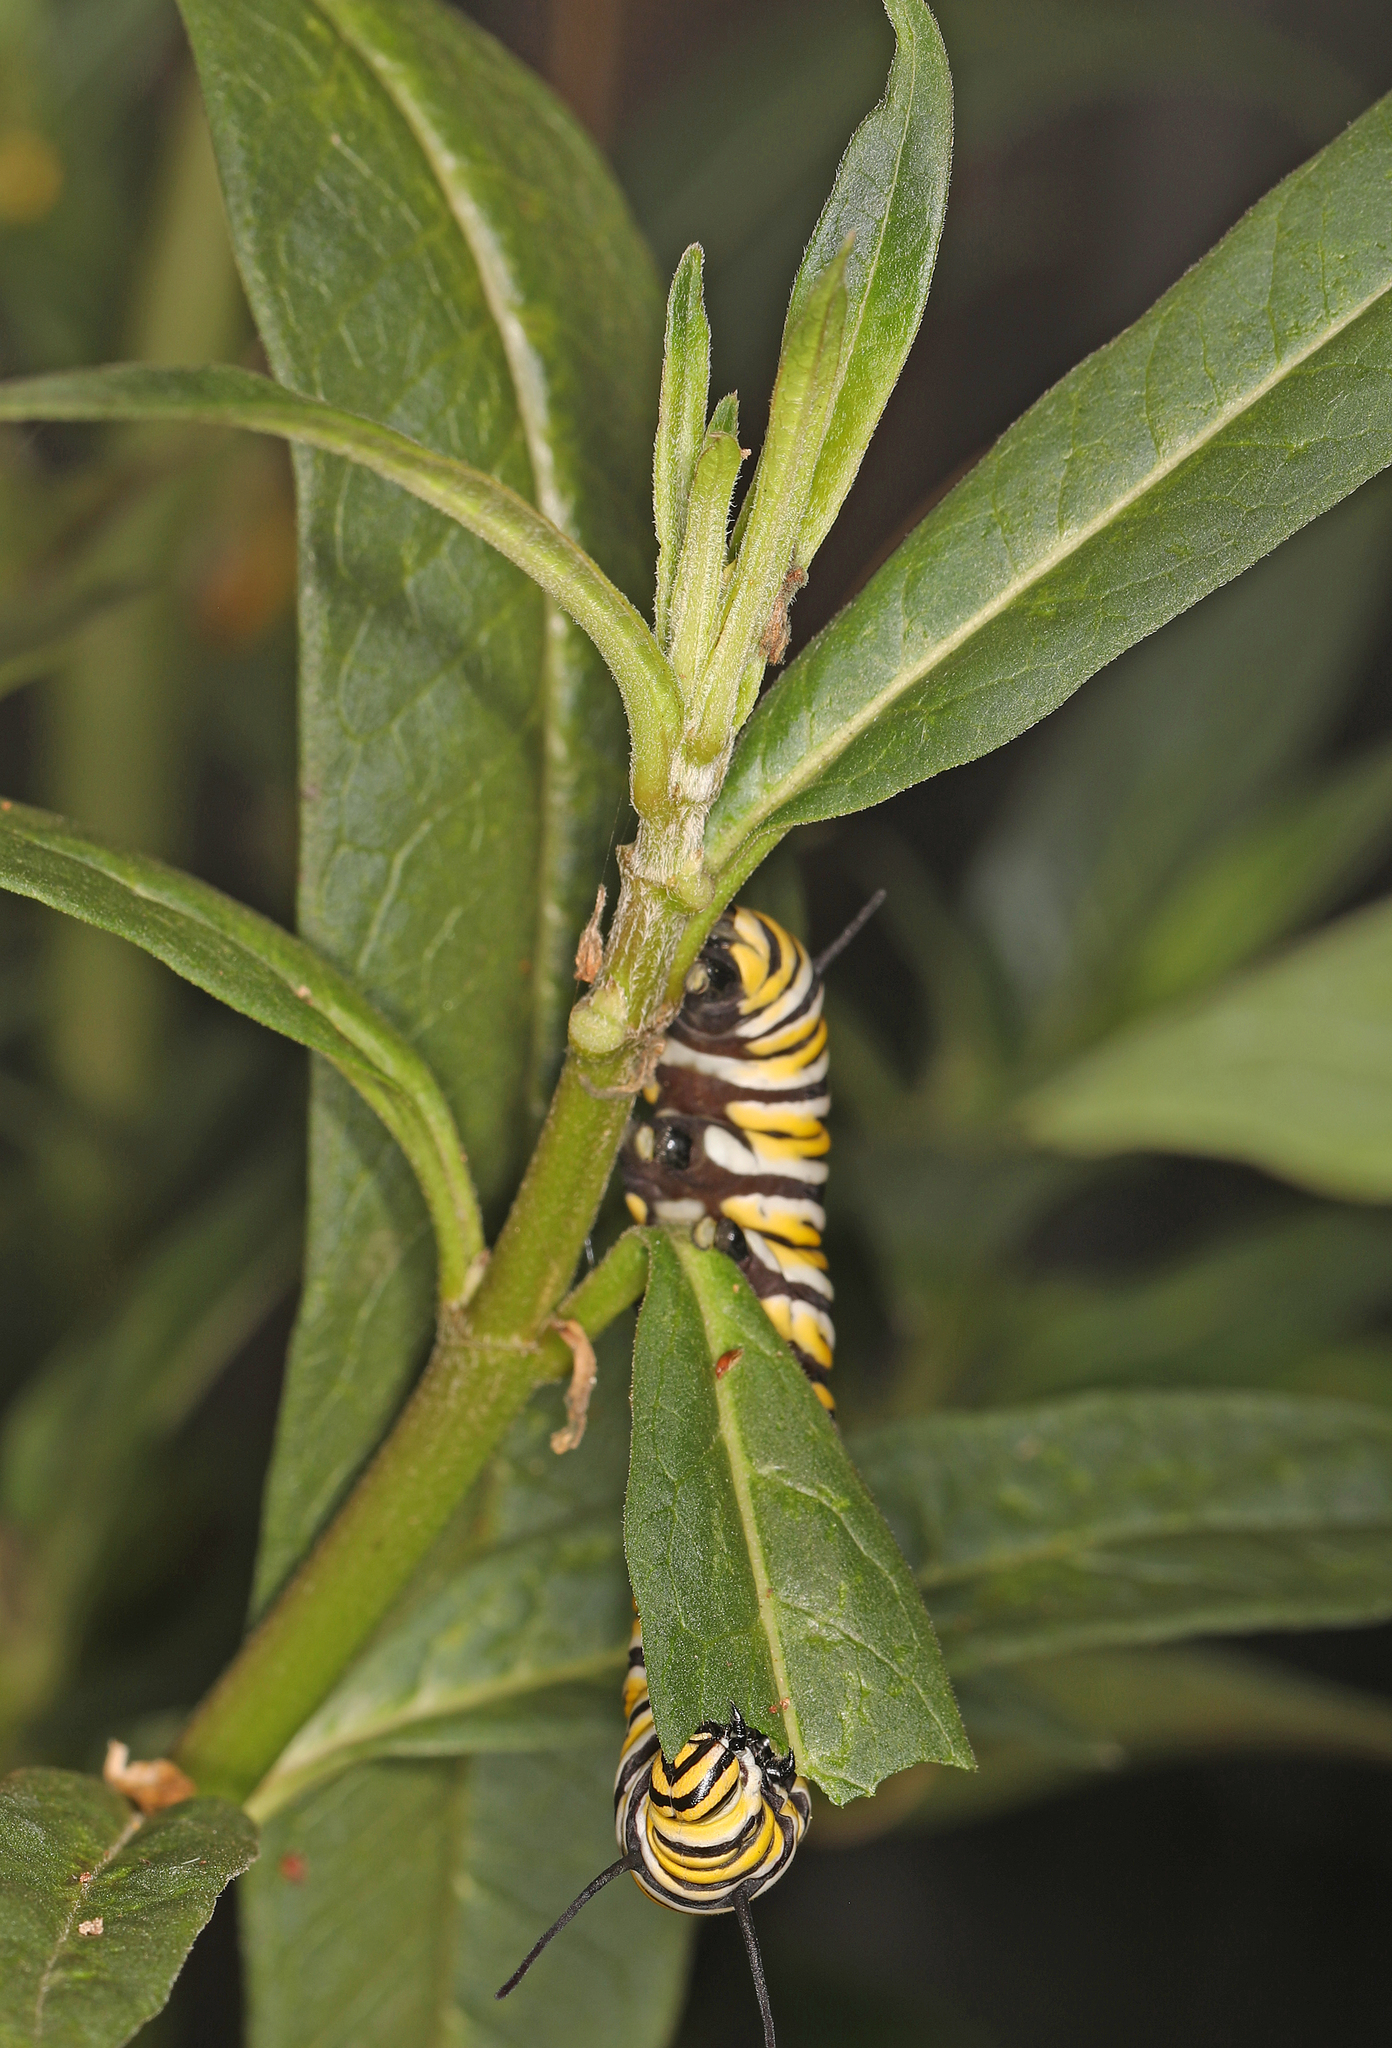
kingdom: Animalia
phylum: Arthropoda
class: Insecta
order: Lepidoptera
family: Nymphalidae
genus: Danaus
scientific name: Danaus plexippus
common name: Monarch
